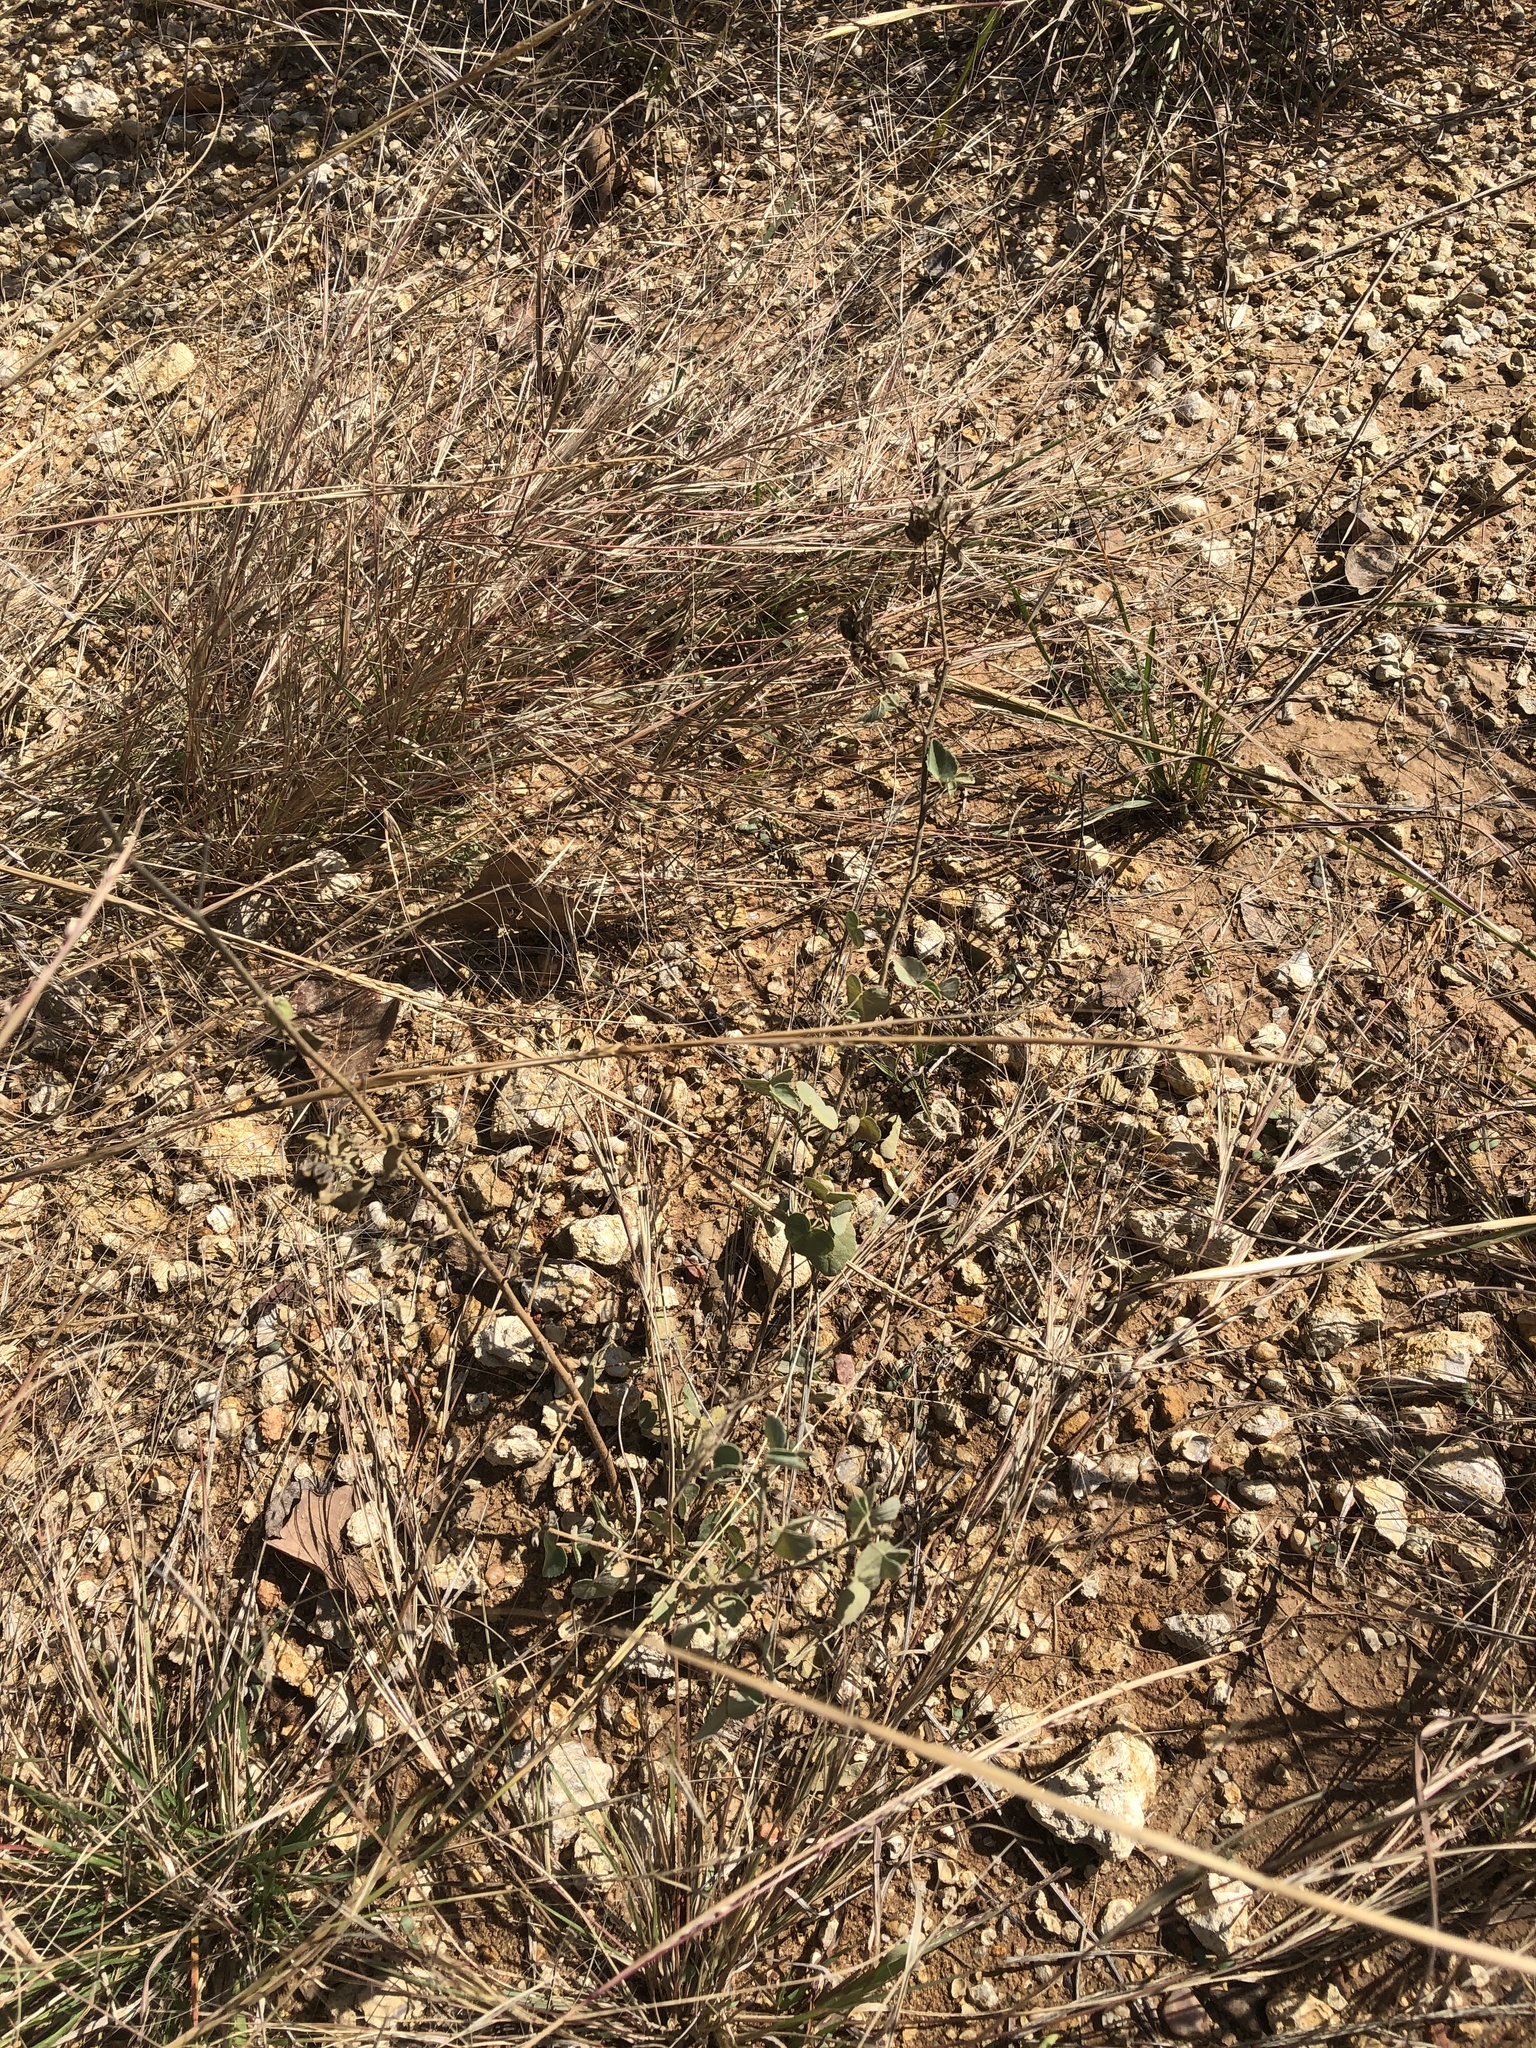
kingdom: Plantae
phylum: Tracheophyta
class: Magnoliopsida
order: Malvales
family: Malvaceae
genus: Abutilon
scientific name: Abutilon fruticosum
